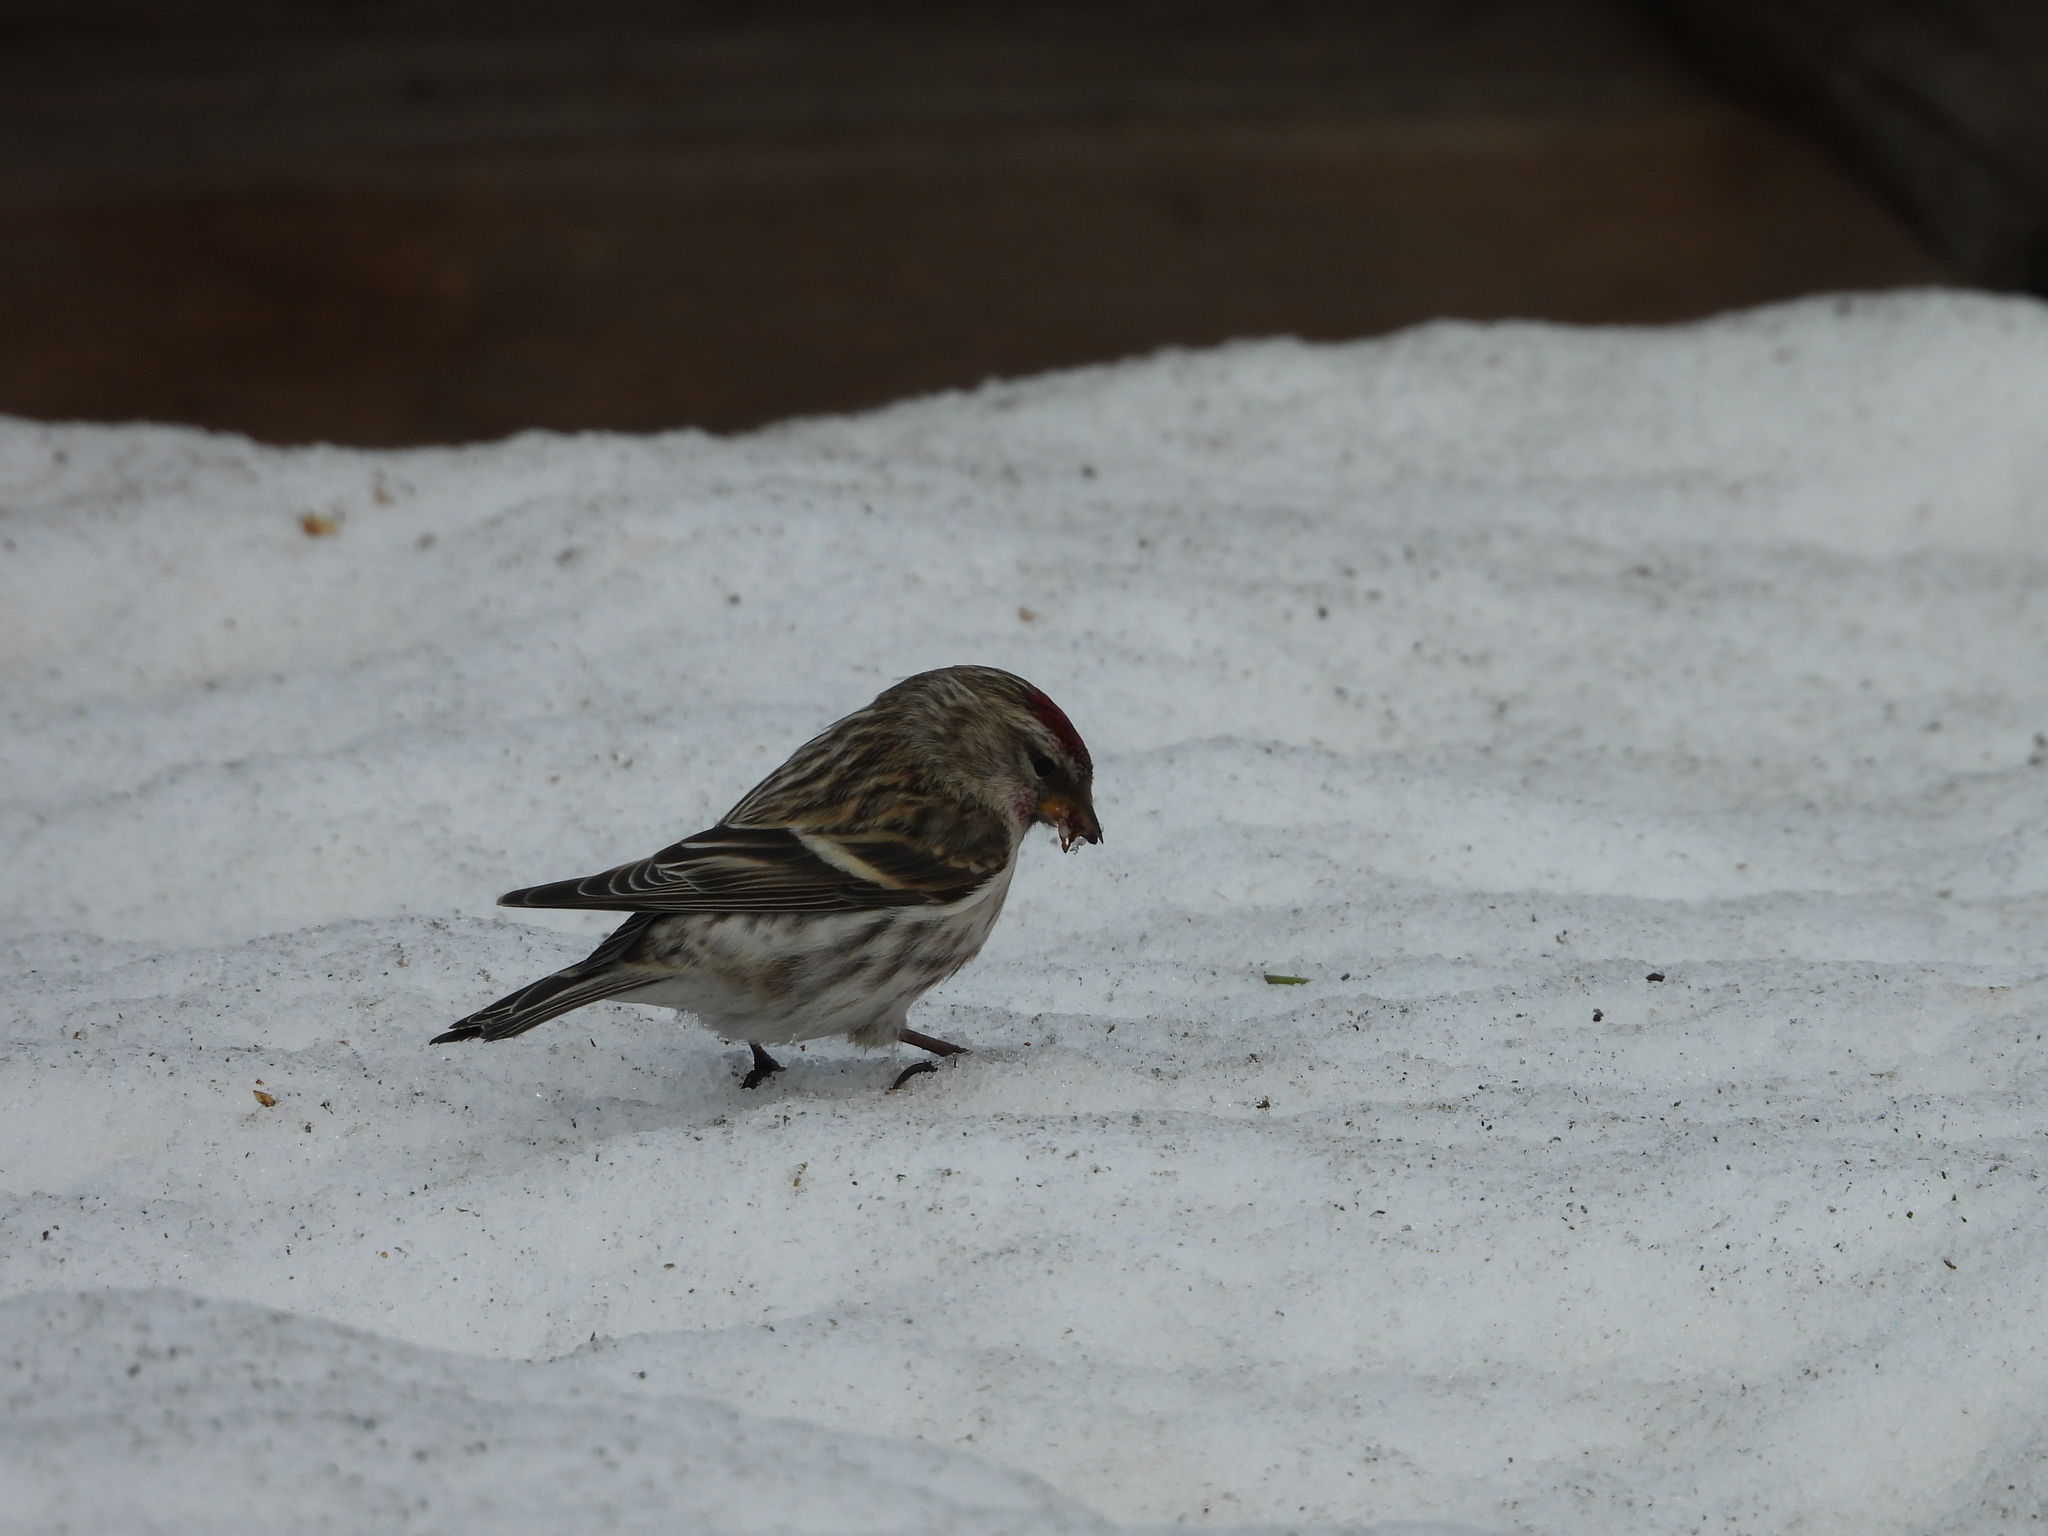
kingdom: Animalia
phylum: Chordata
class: Aves
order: Passeriformes
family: Fringillidae
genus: Acanthis
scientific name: Acanthis flammea
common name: Common redpoll
